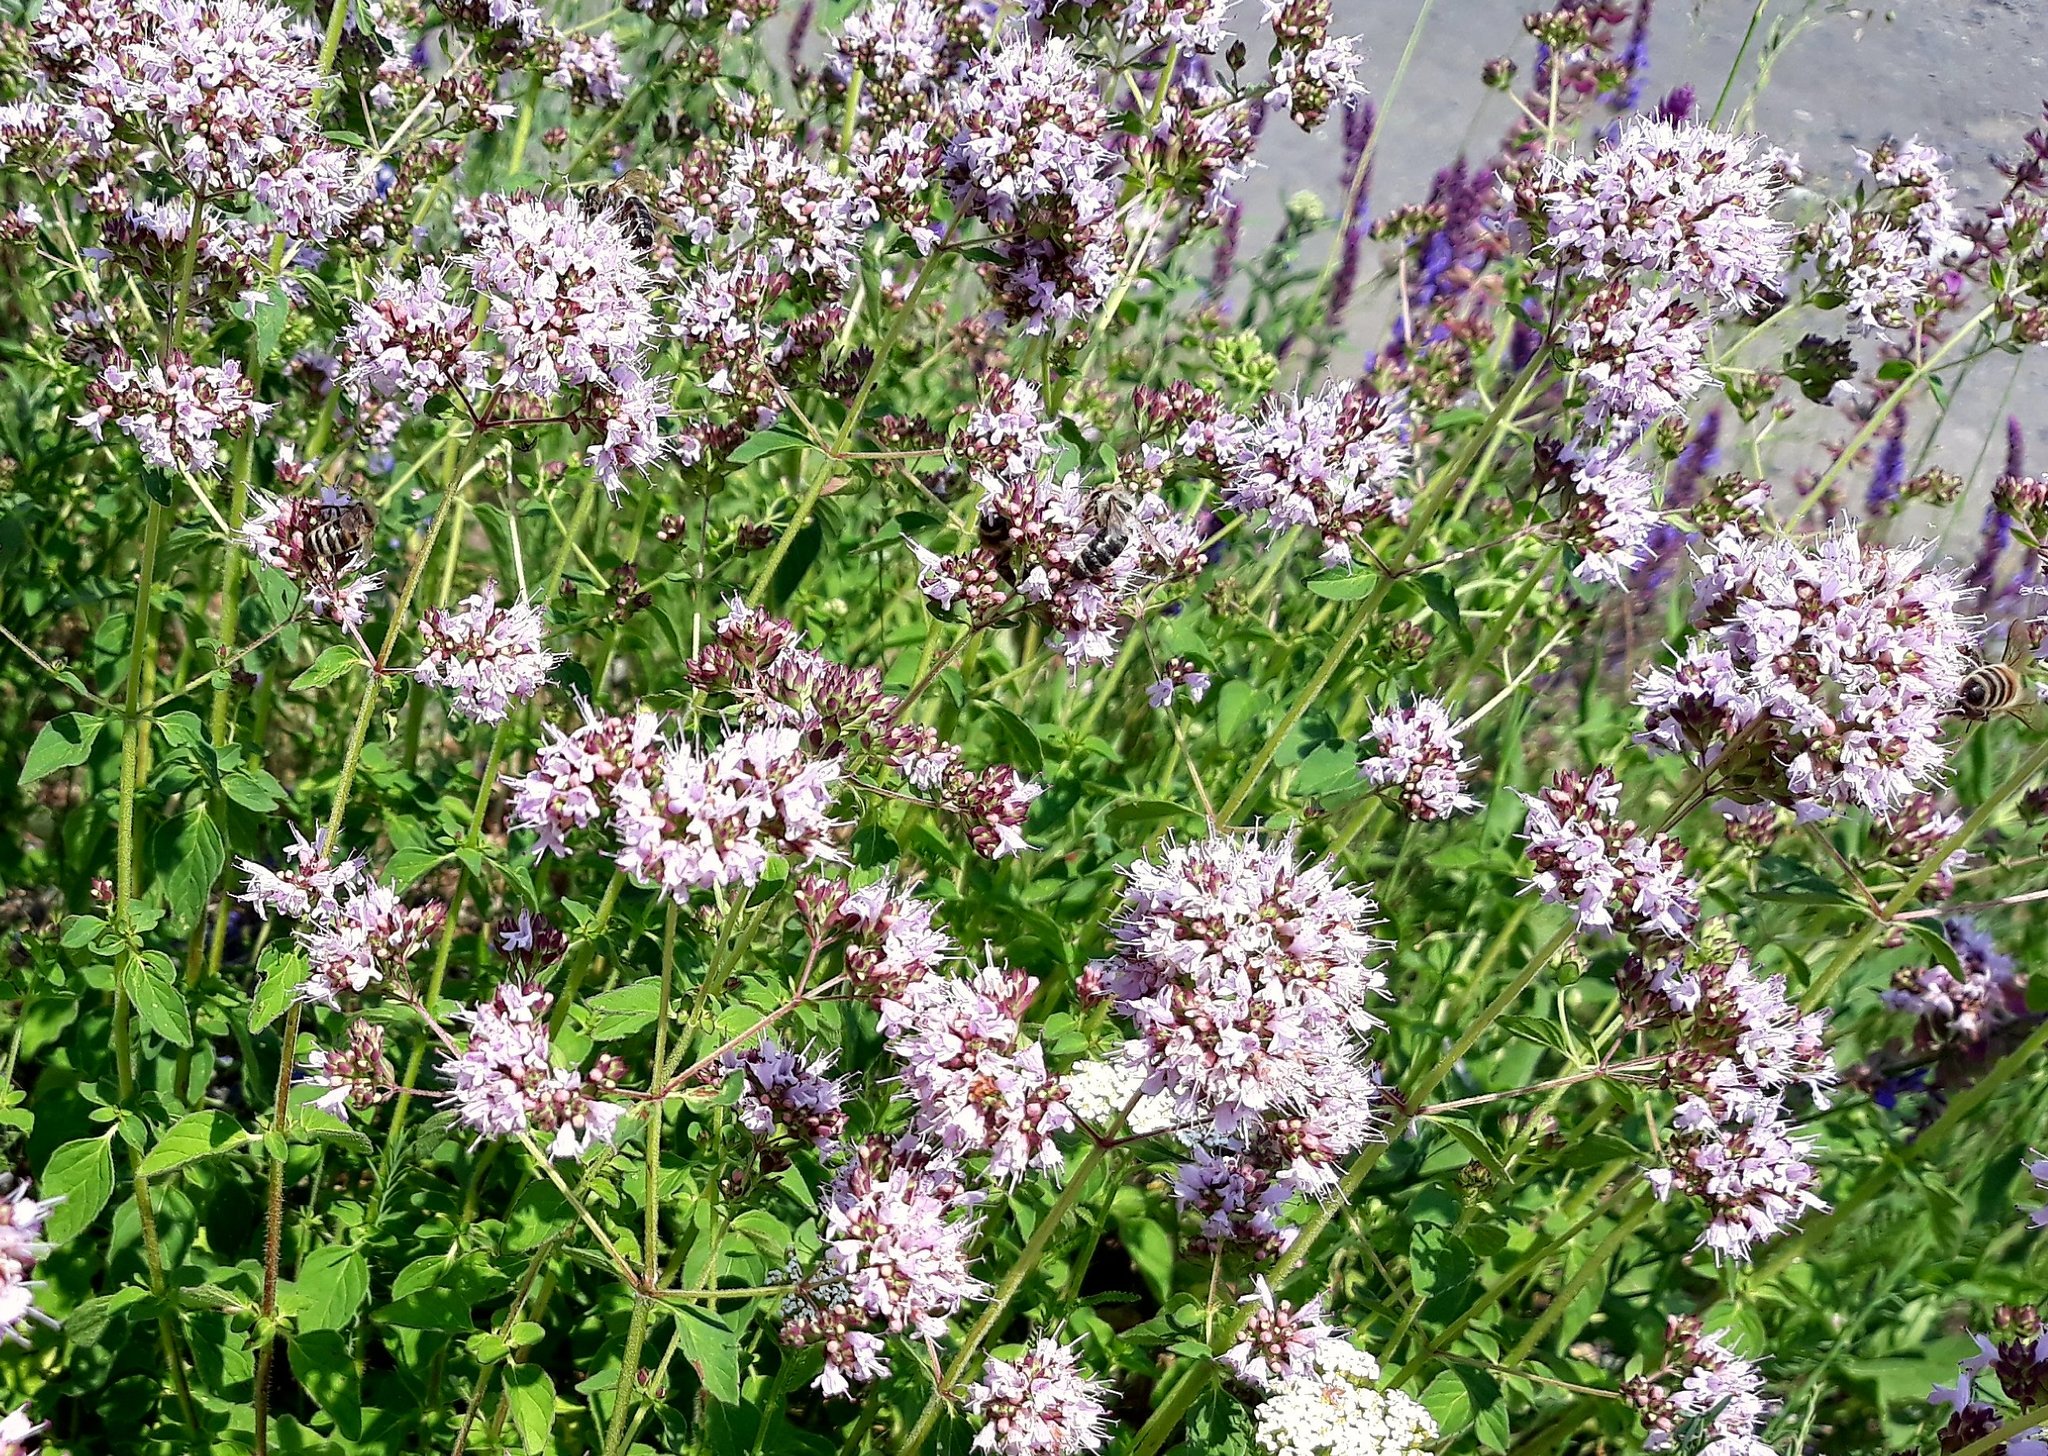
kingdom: Plantae
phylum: Tracheophyta
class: Magnoliopsida
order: Lamiales
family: Lamiaceae
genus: Origanum
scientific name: Origanum vulgare
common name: Wild marjoram
